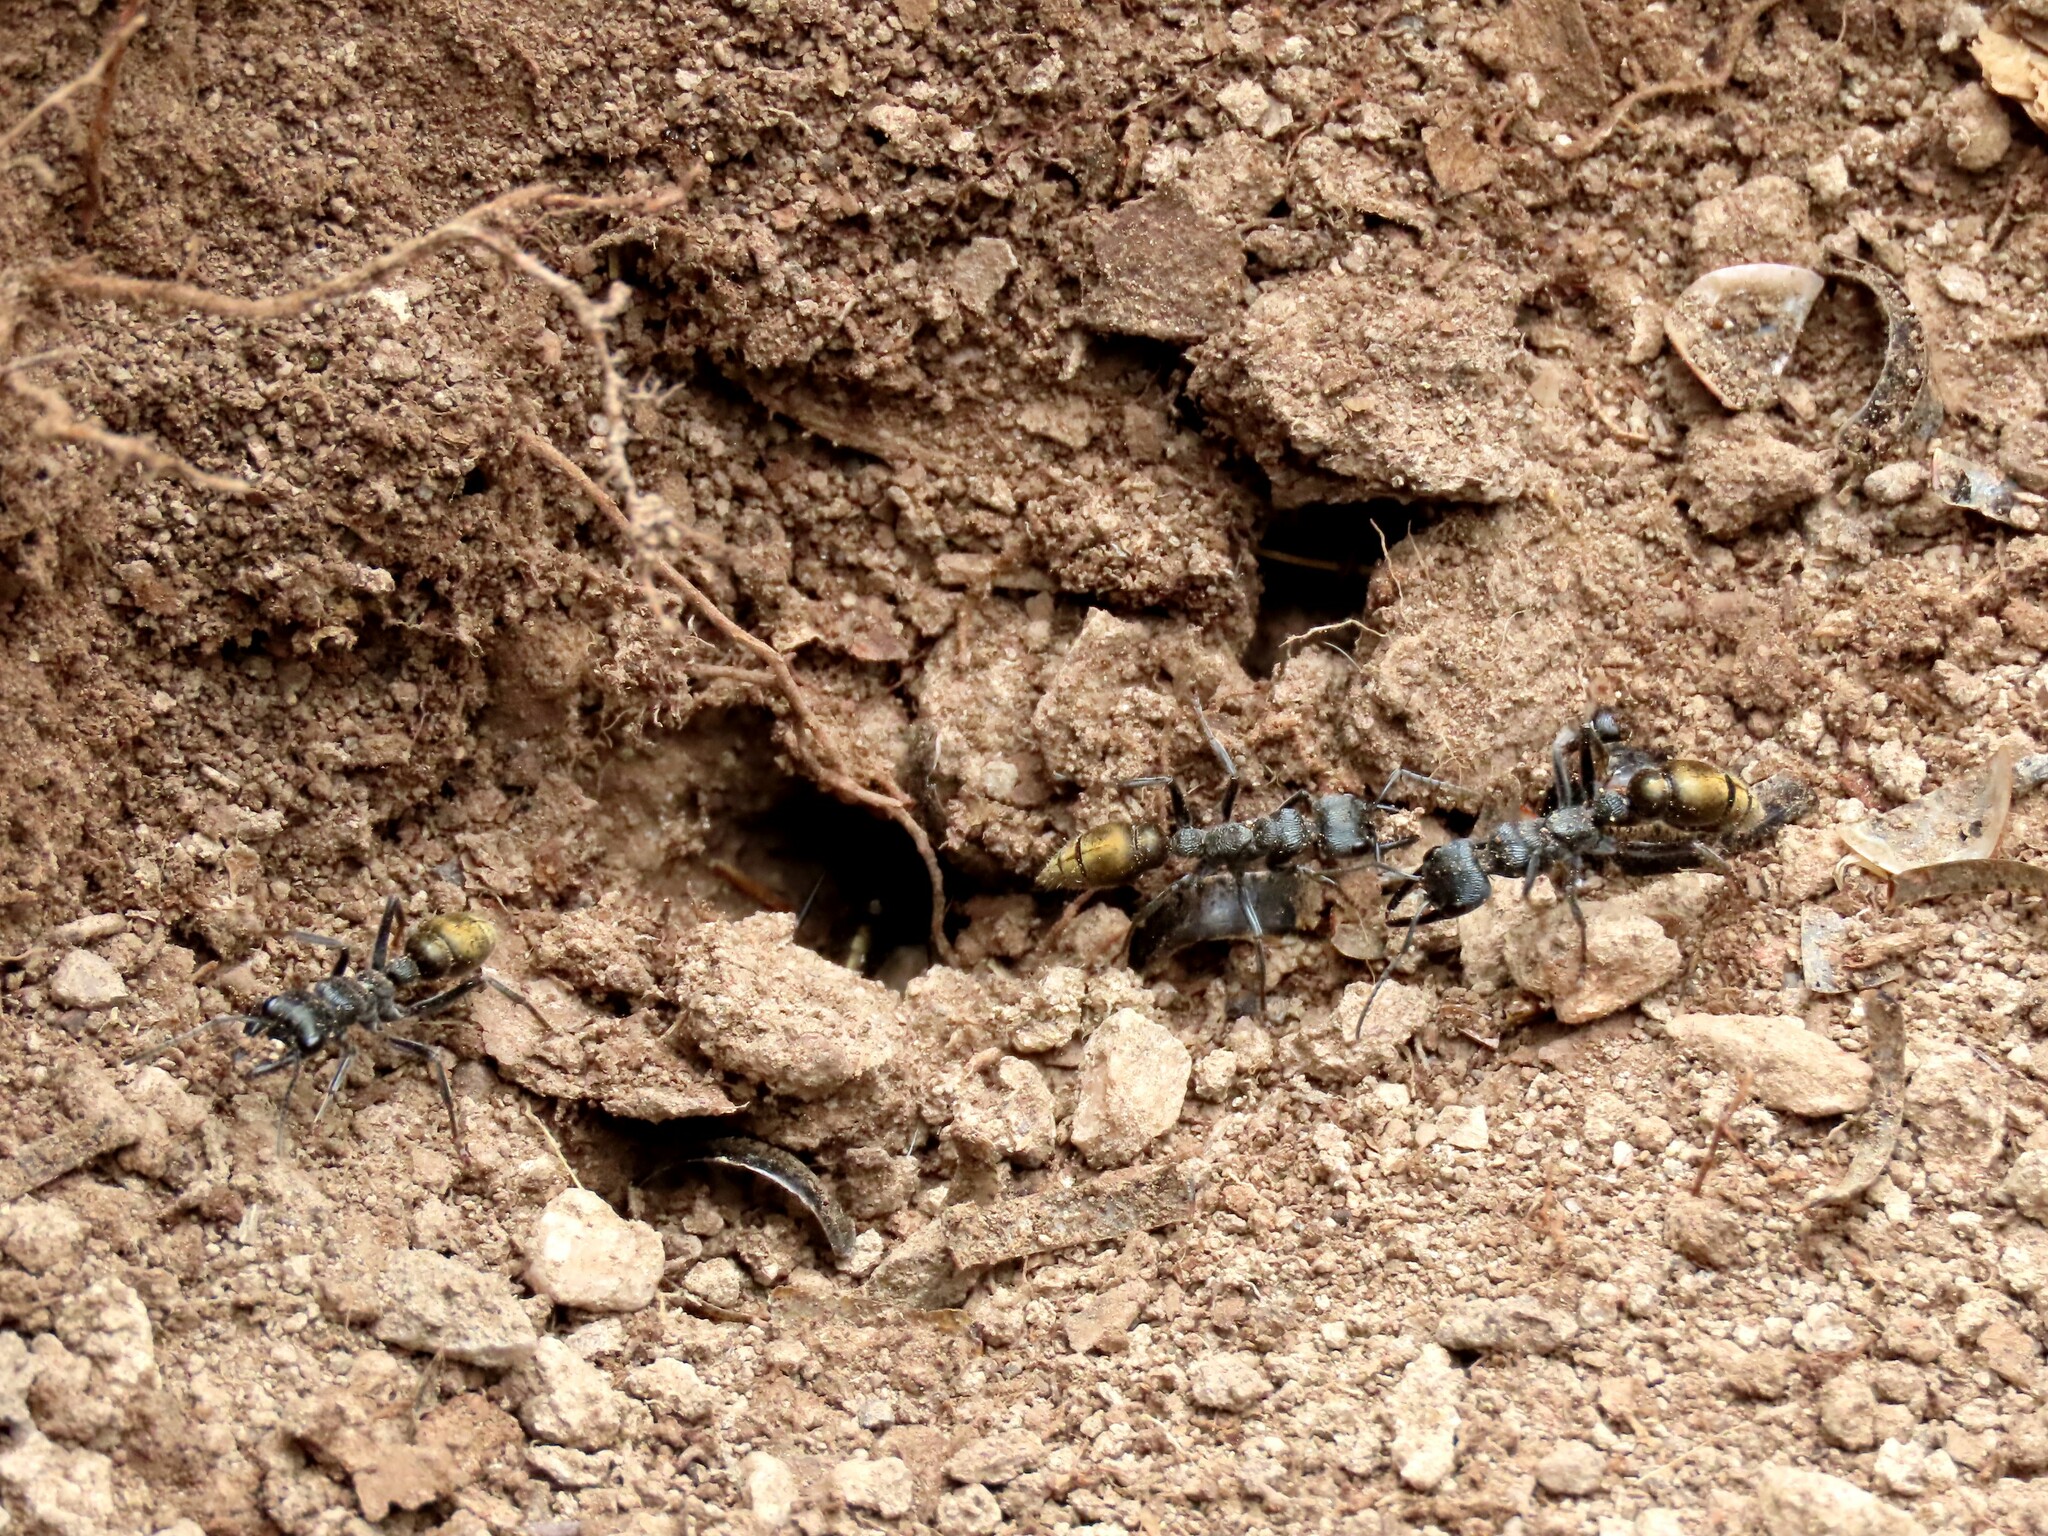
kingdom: Animalia
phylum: Arthropoda
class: Insecta
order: Hymenoptera
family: Formicidae
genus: Myrmecia
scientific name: Myrmecia piliventris
